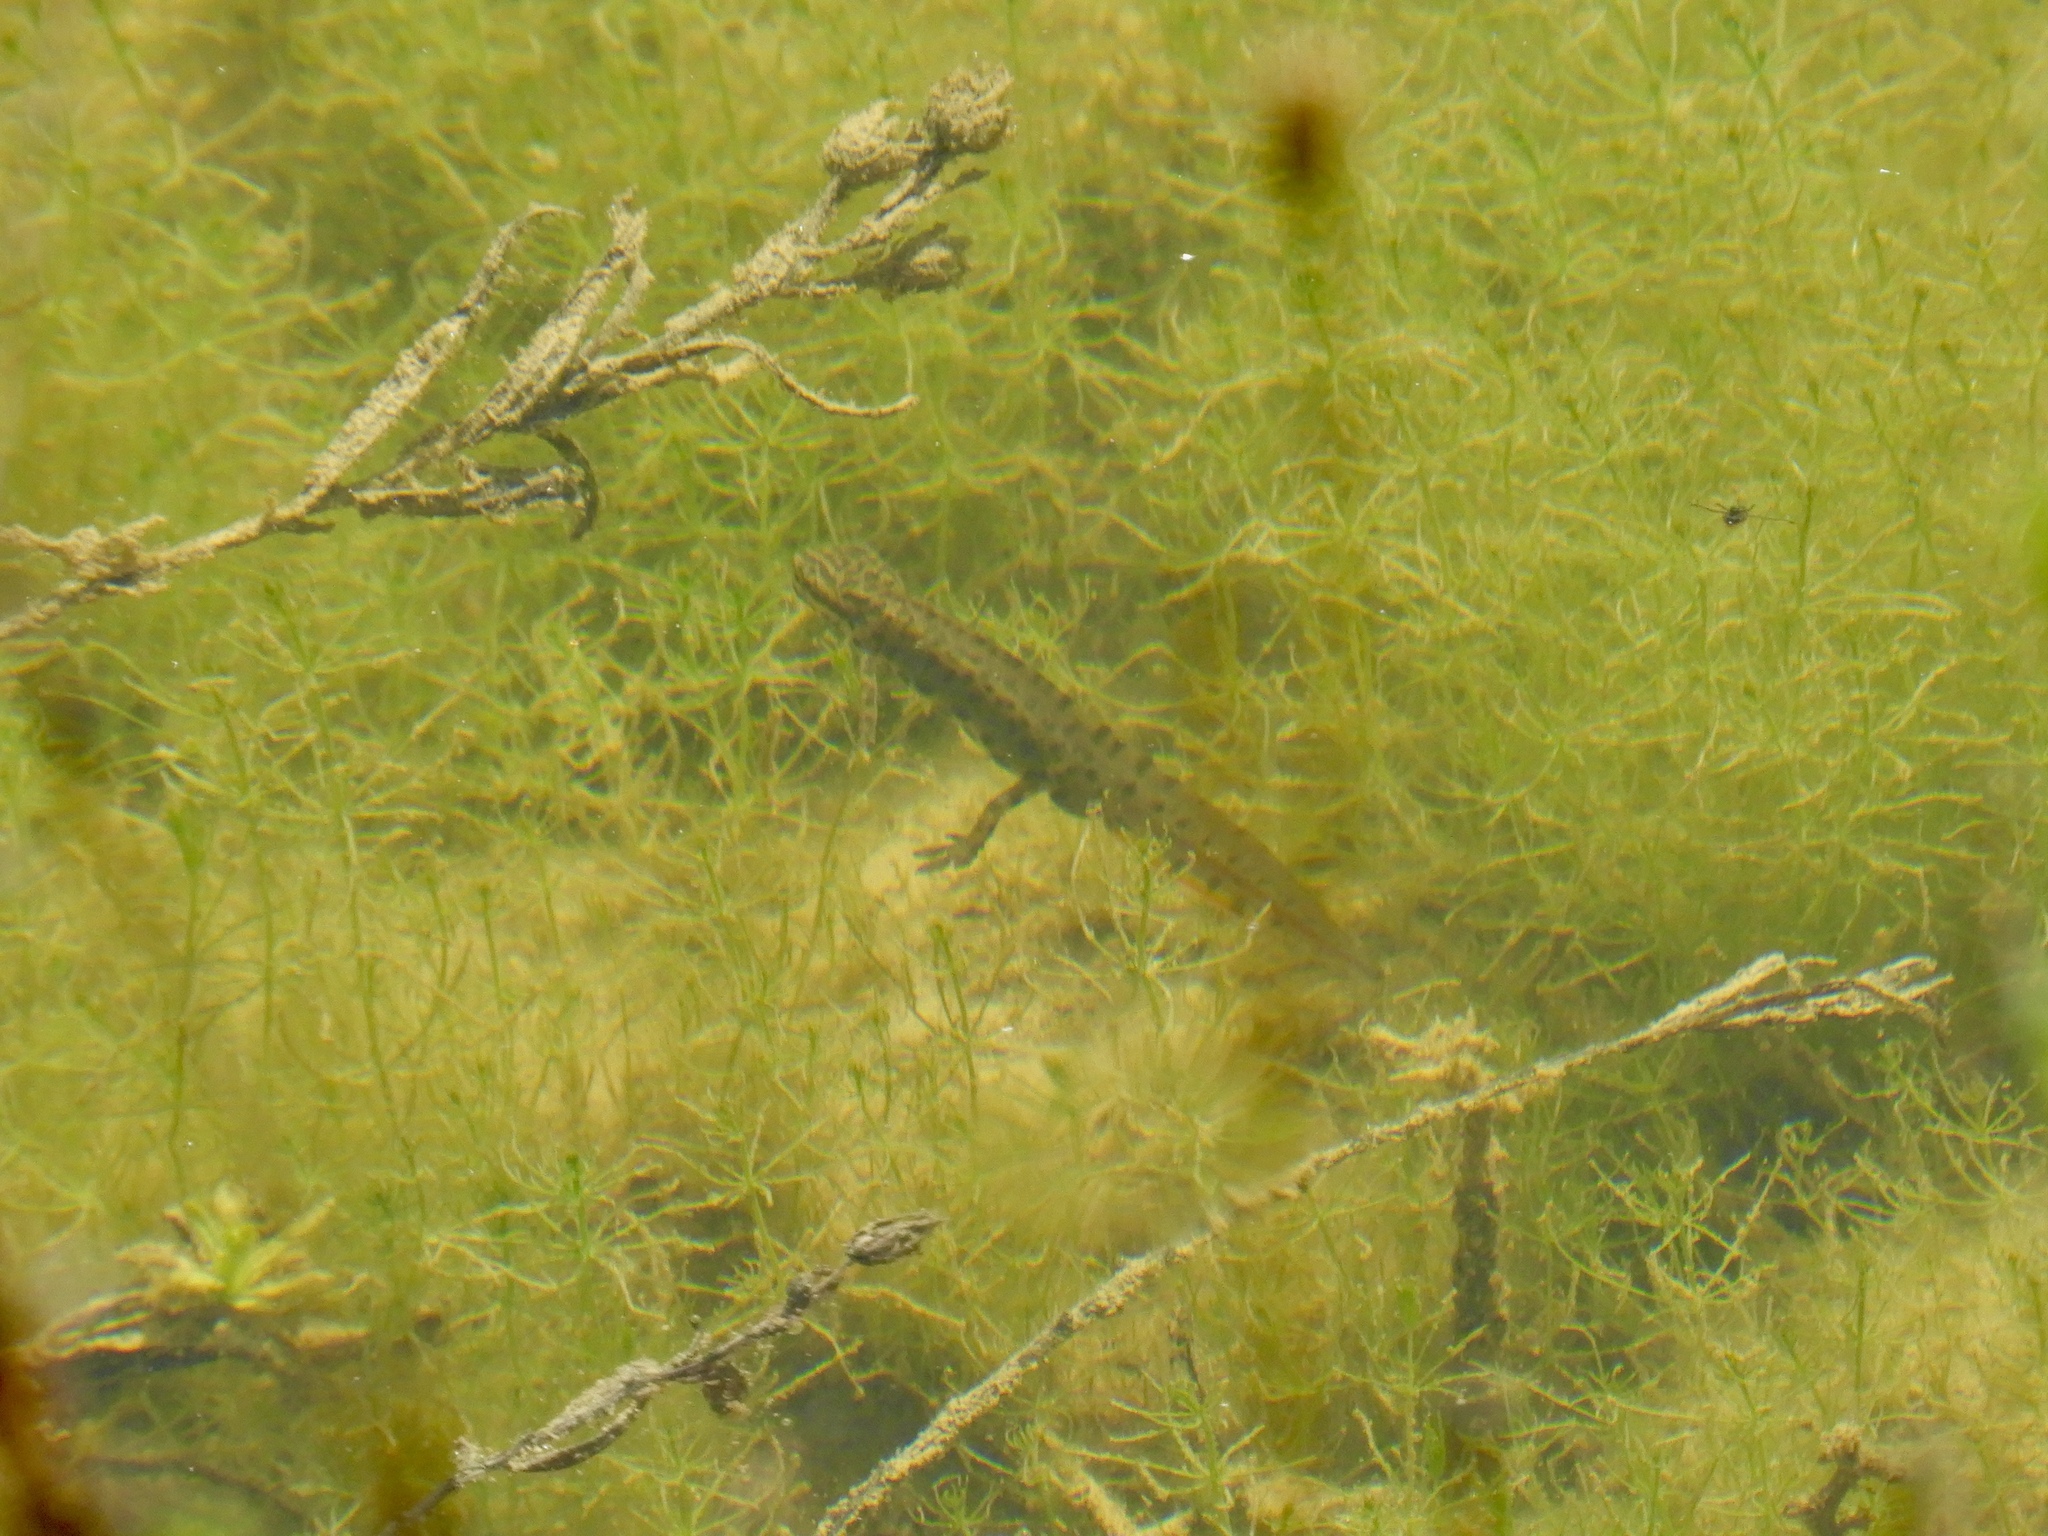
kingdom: Animalia
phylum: Chordata
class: Amphibia
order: Caudata
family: Salamandridae
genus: Lissotriton
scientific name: Lissotriton vulgaris
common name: Smooth newt
